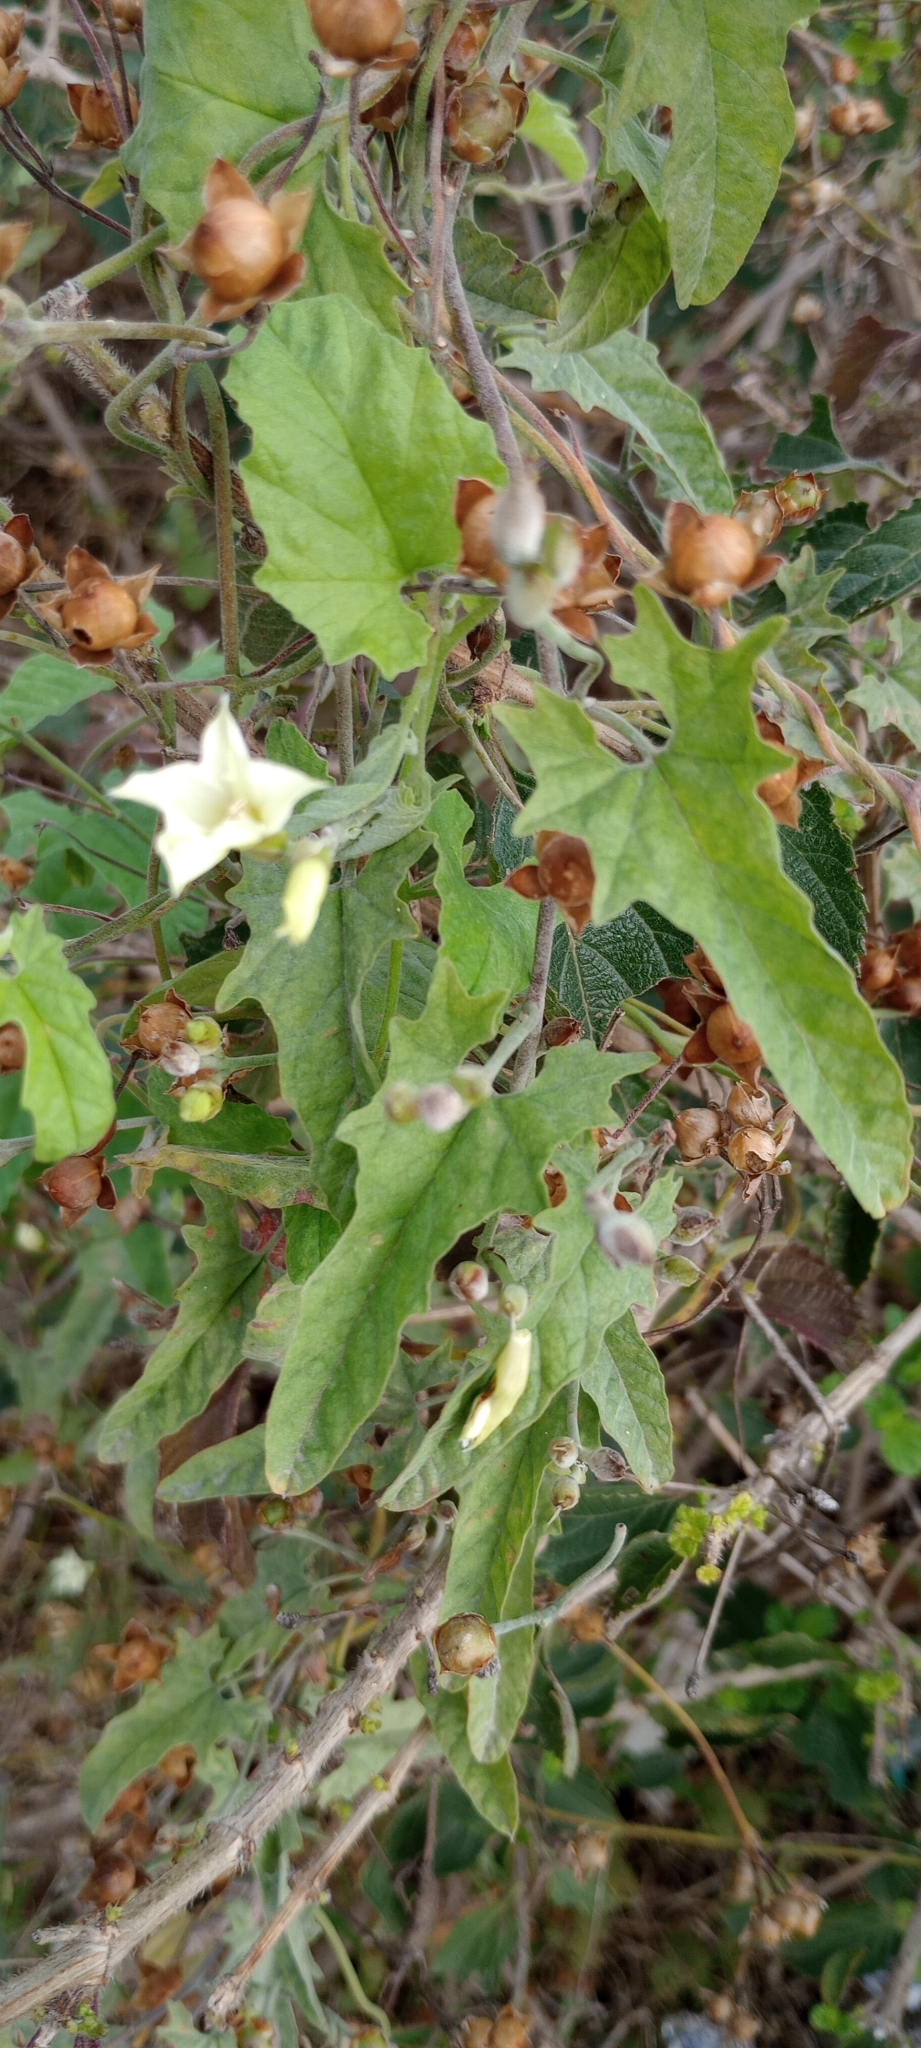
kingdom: Plantae
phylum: Tracheophyta
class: Magnoliopsida
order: Solanales
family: Convolvulaceae
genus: Convolvulus
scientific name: Convolvulus crenatifolius
